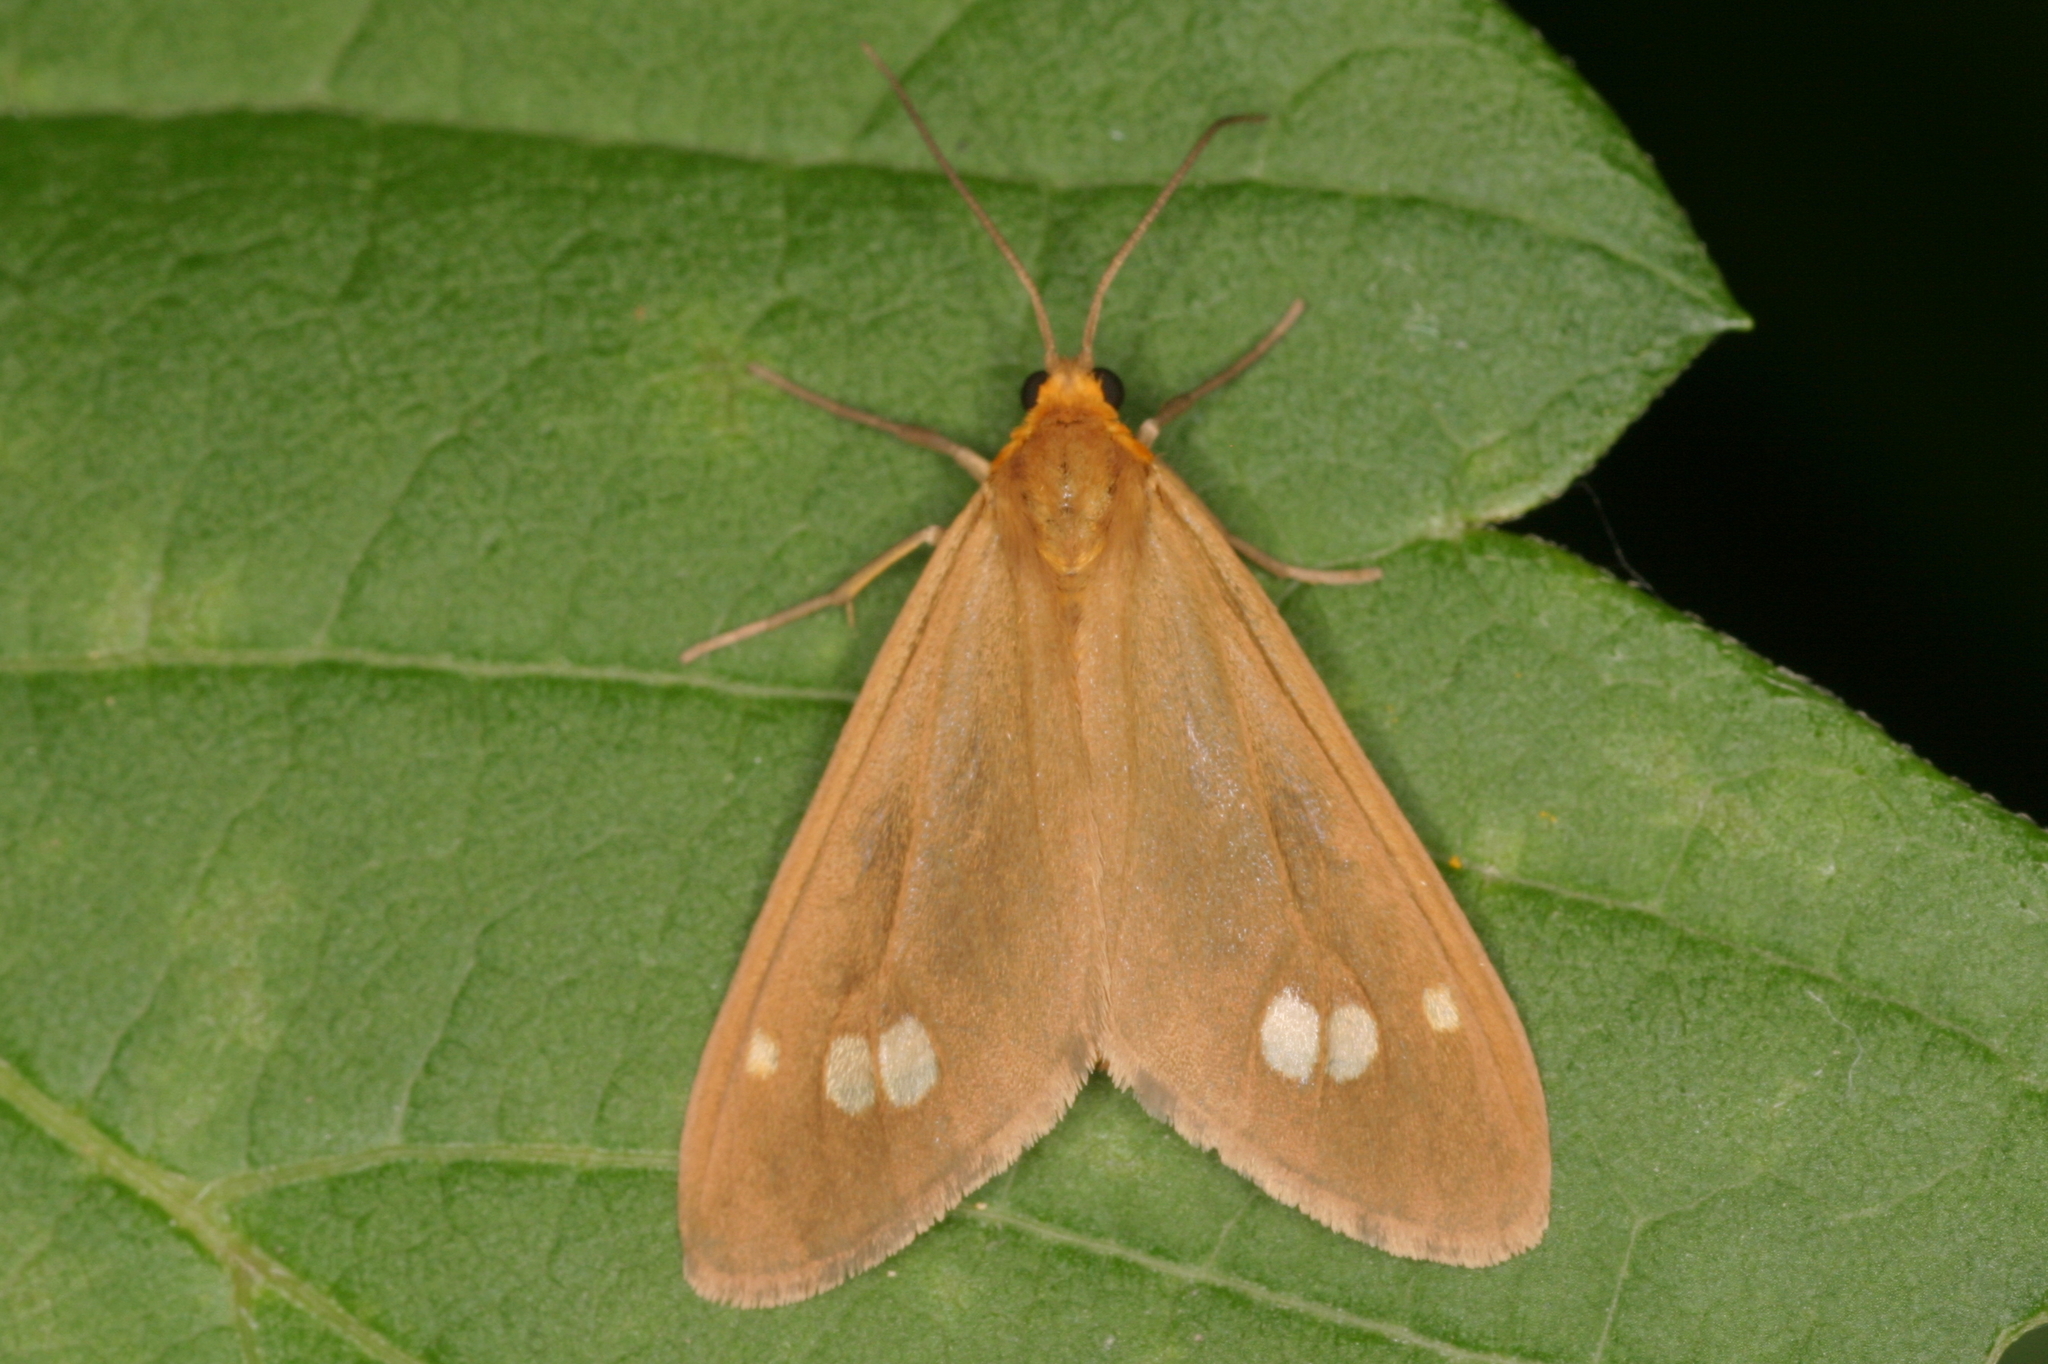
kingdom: Animalia
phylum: Arthropoda
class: Insecta
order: Lepidoptera
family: Erebidae
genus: Dysauxes
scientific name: Dysauxes ancilla
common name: The handmaid
